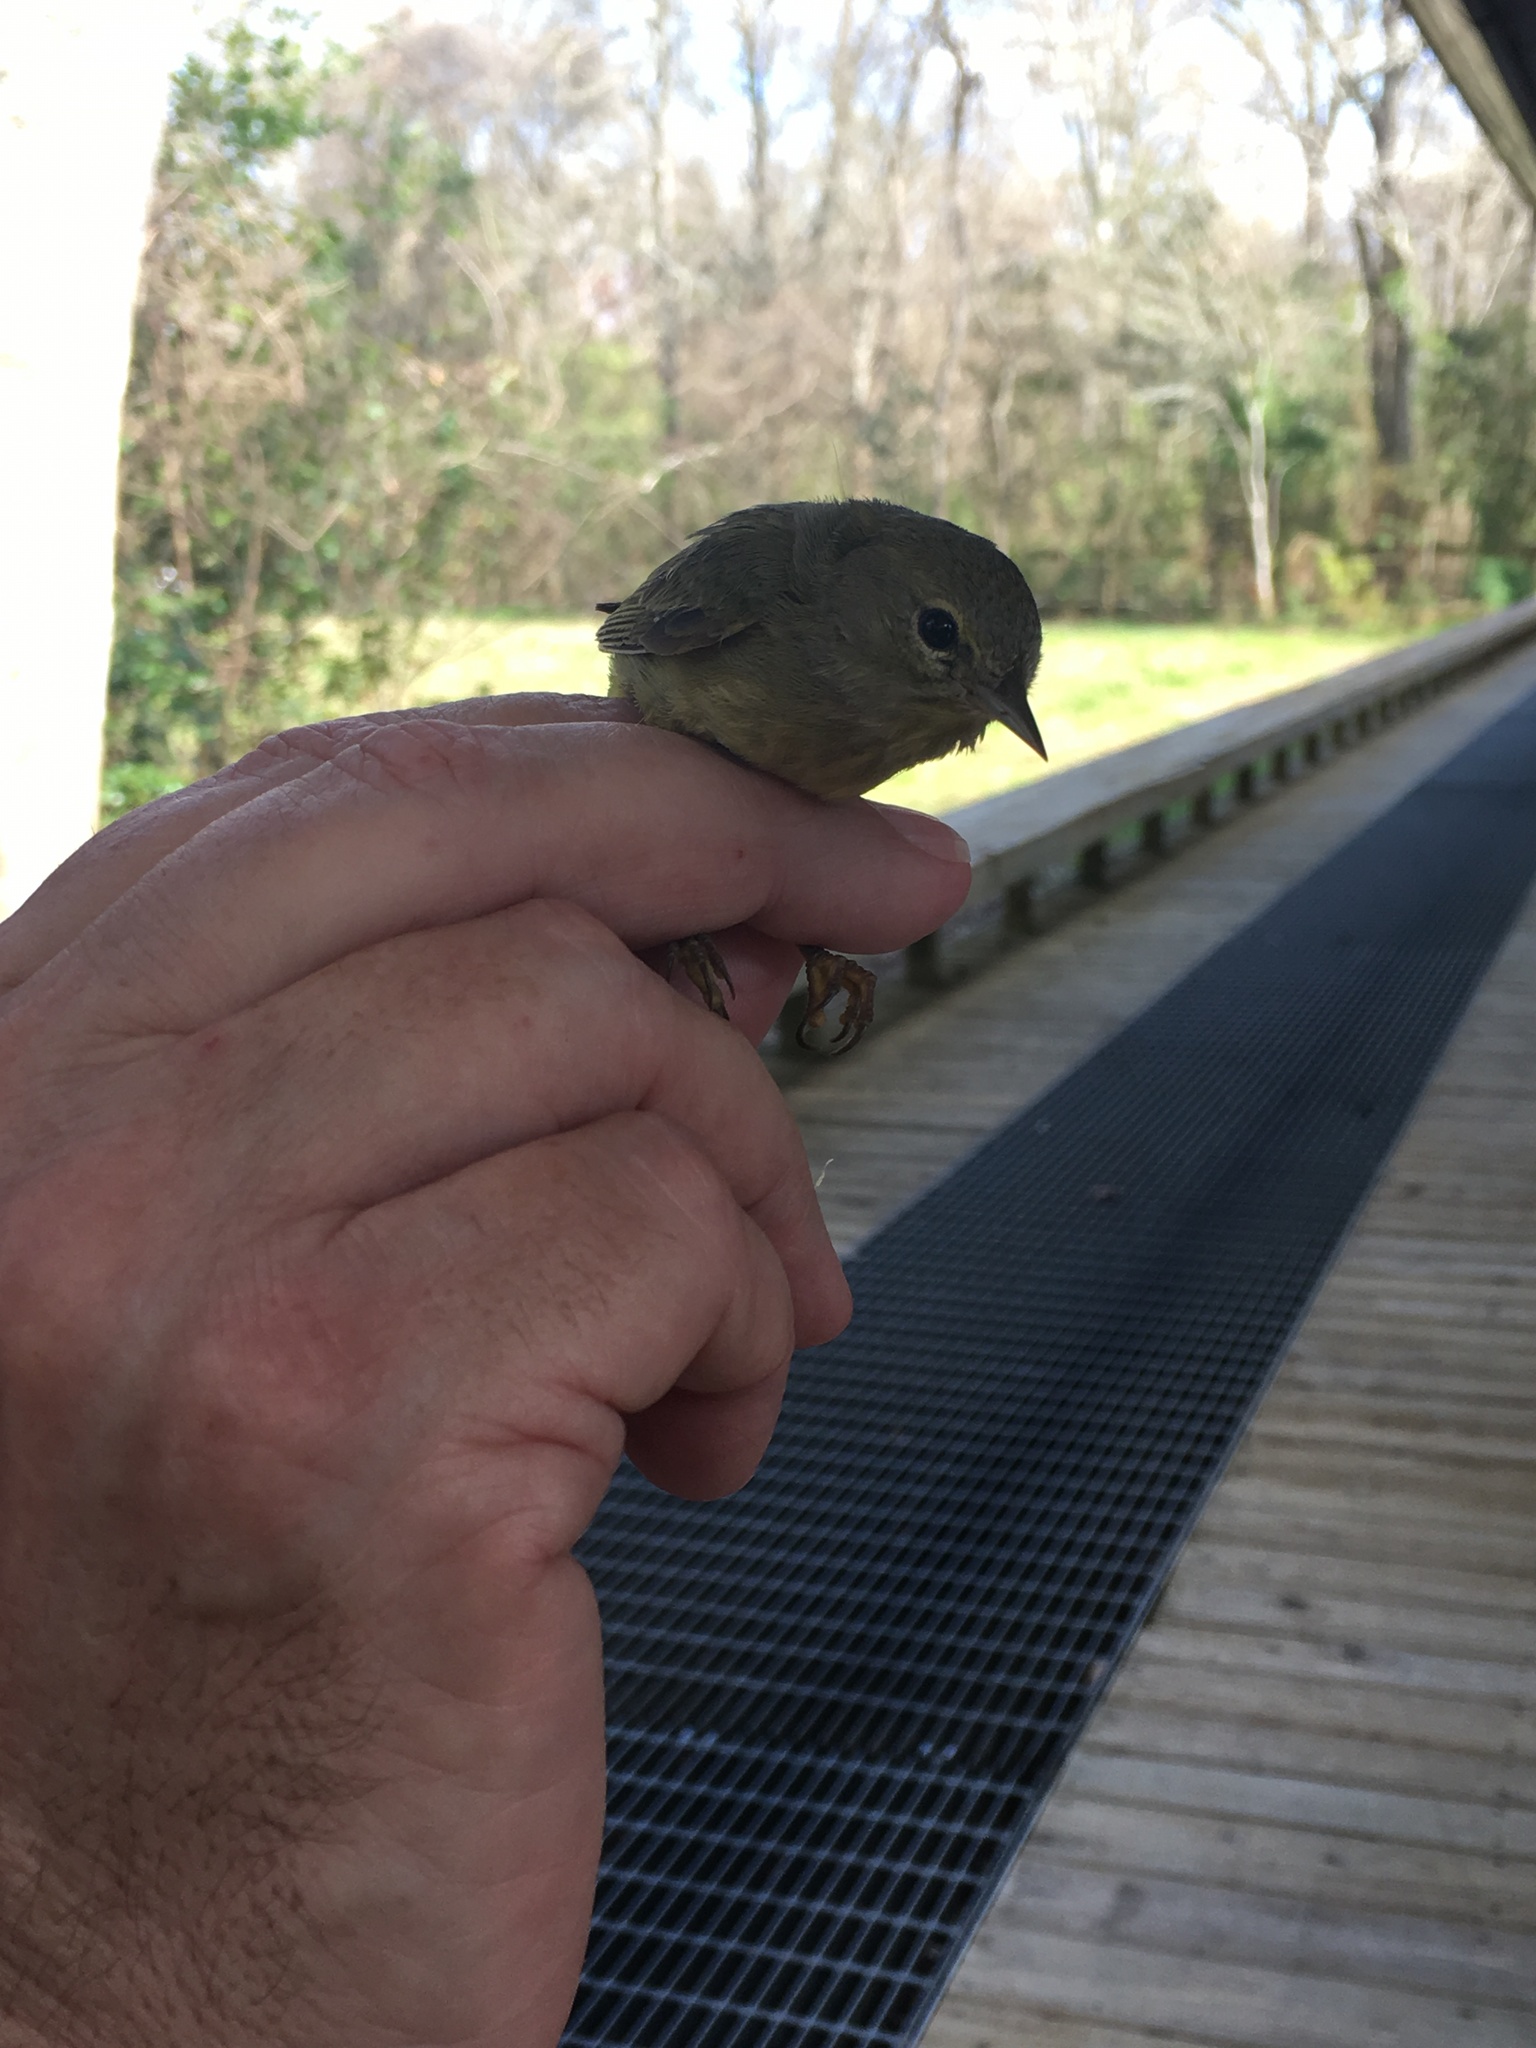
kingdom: Animalia
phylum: Chordata
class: Aves
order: Passeriformes
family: Parulidae
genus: Leiothlypis
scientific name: Leiothlypis celata
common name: Orange-crowned warbler
